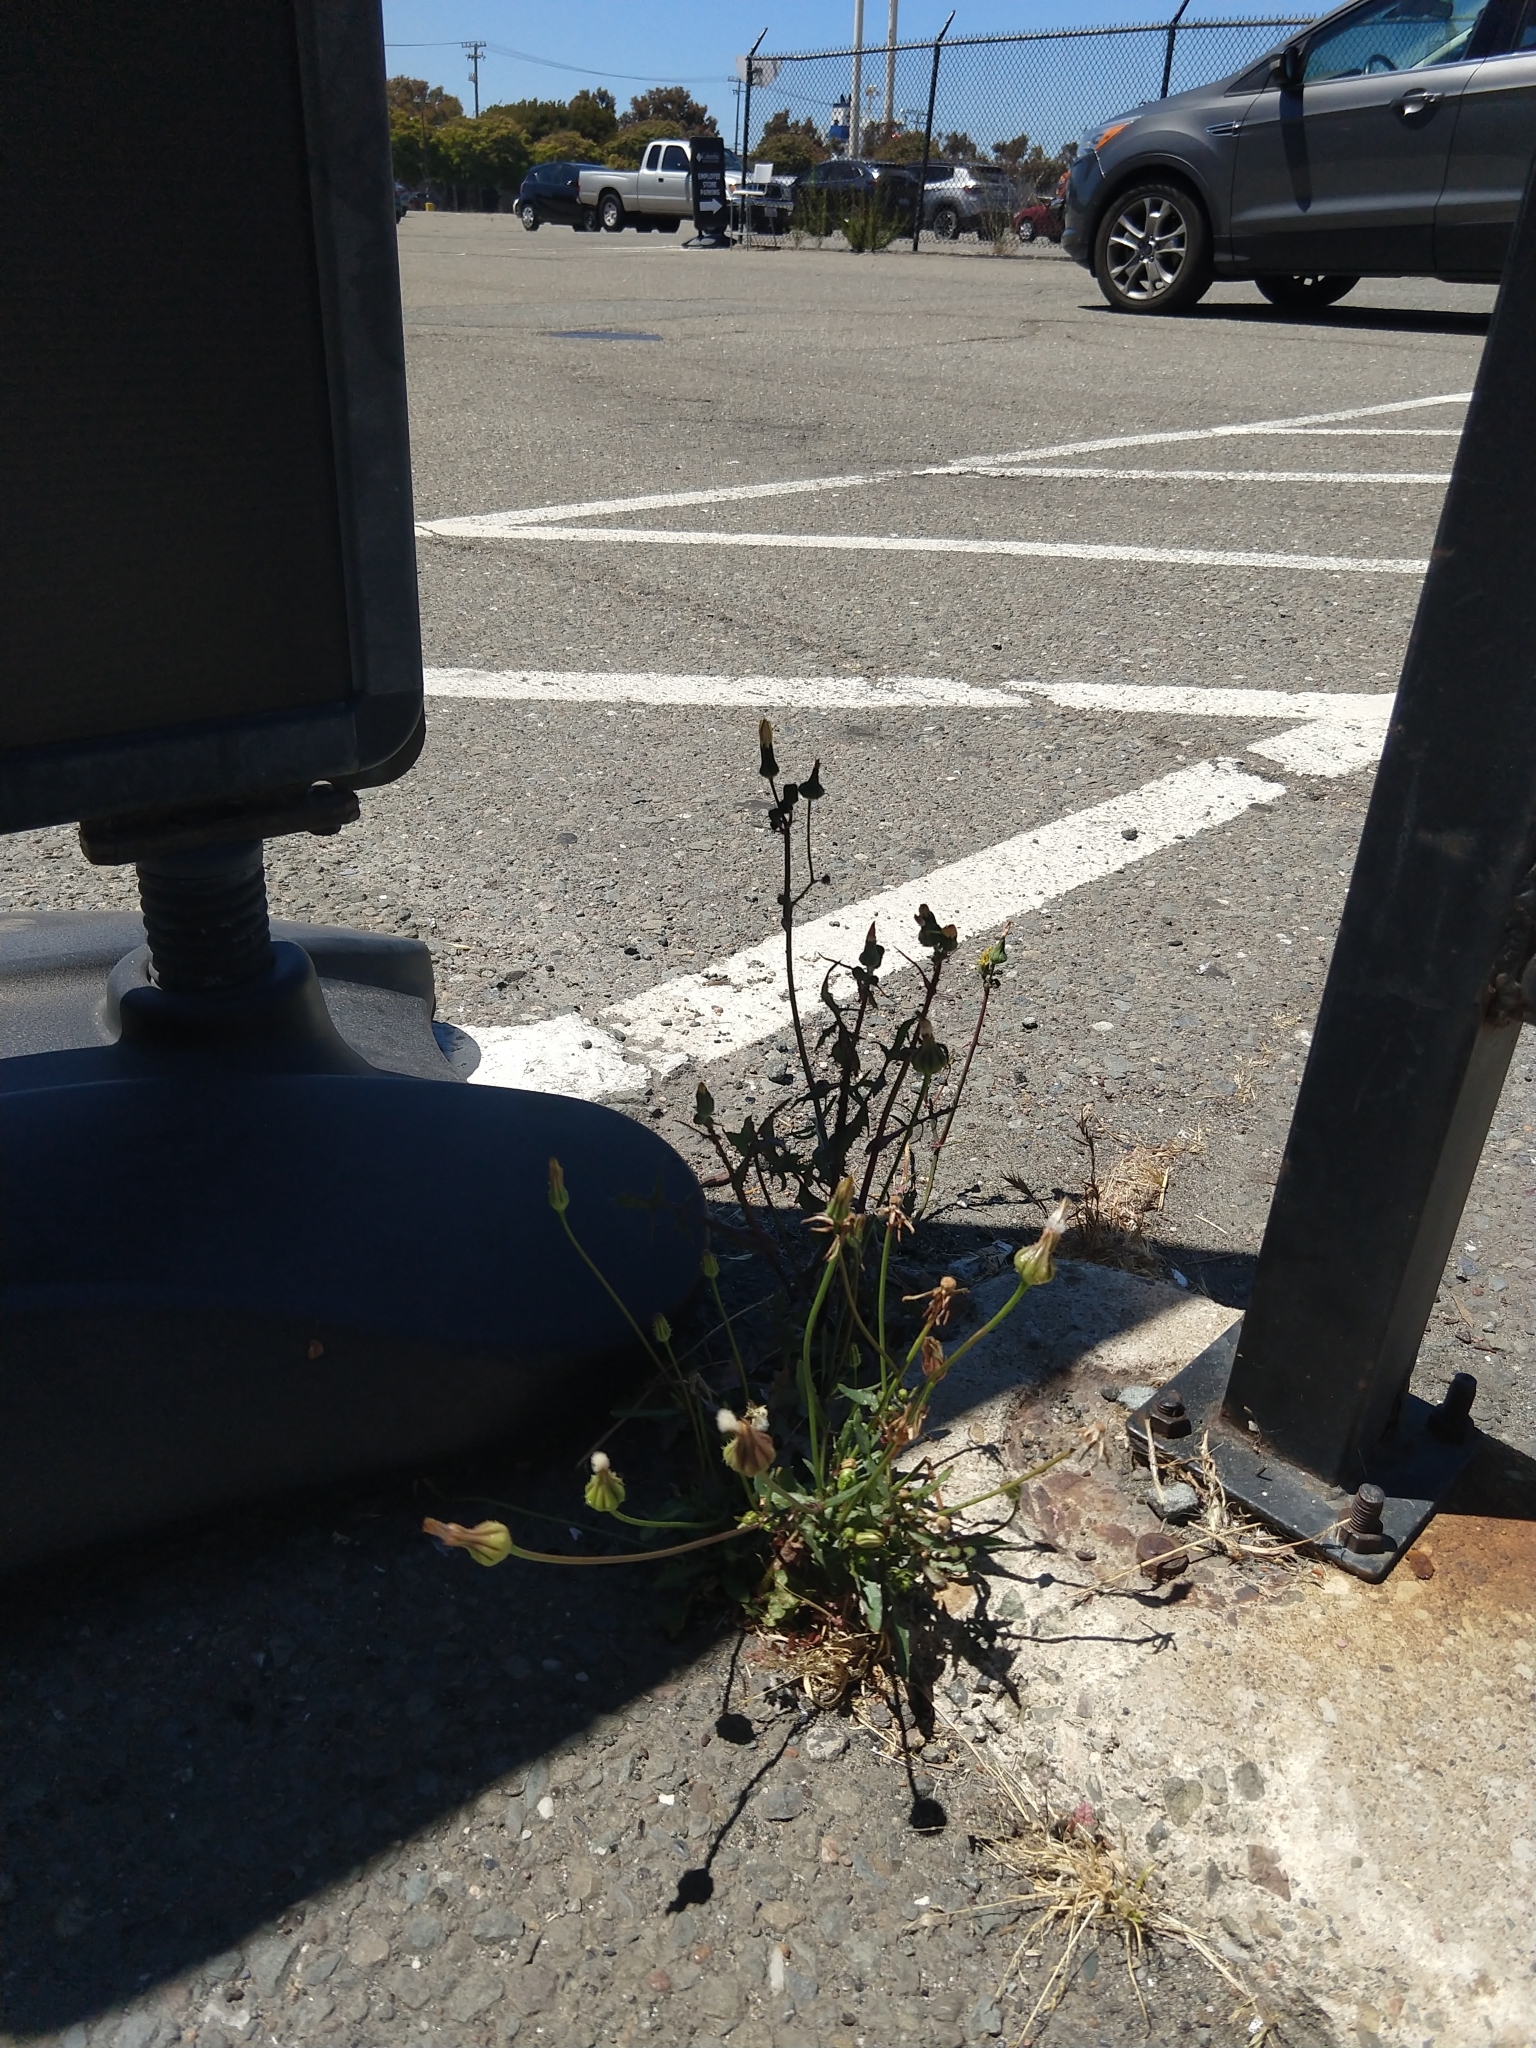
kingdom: Plantae
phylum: Tracheophyta
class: Magnoliopsida
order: Asterales
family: Asteraceae
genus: Urospermum
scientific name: Urospermum picroides
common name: False hawkbit
